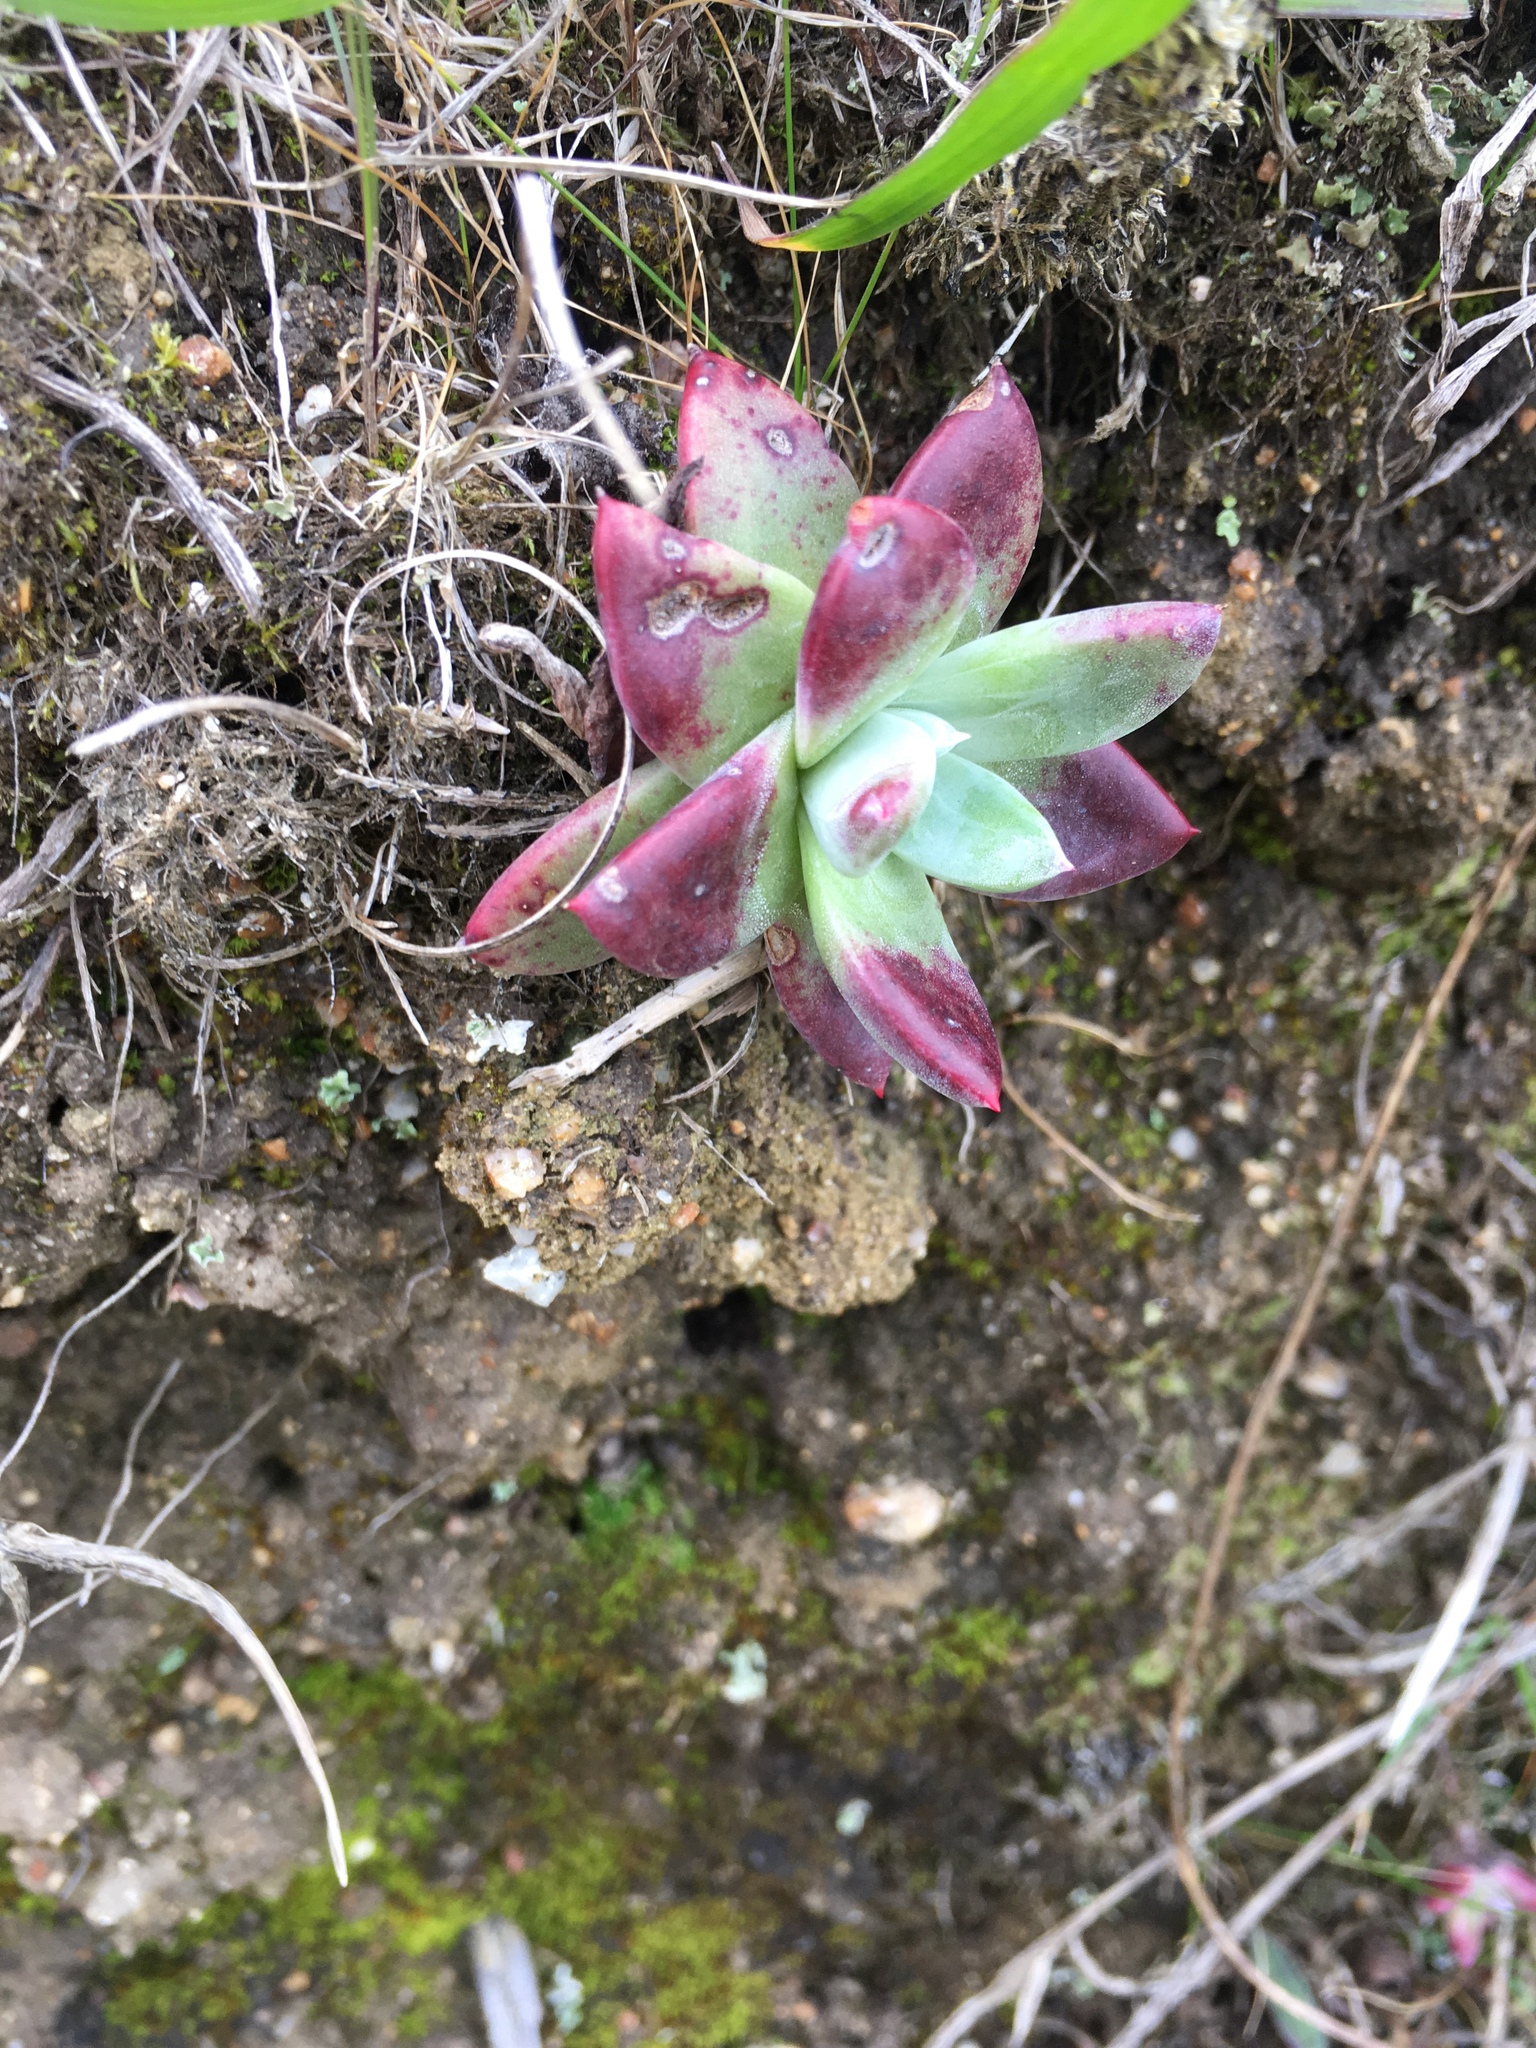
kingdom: Plantae
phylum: Tracheophyta
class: Magnoliopsida
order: Saxifragales
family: Crassulaceae
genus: Dudleya
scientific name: Dudleya farinosa
